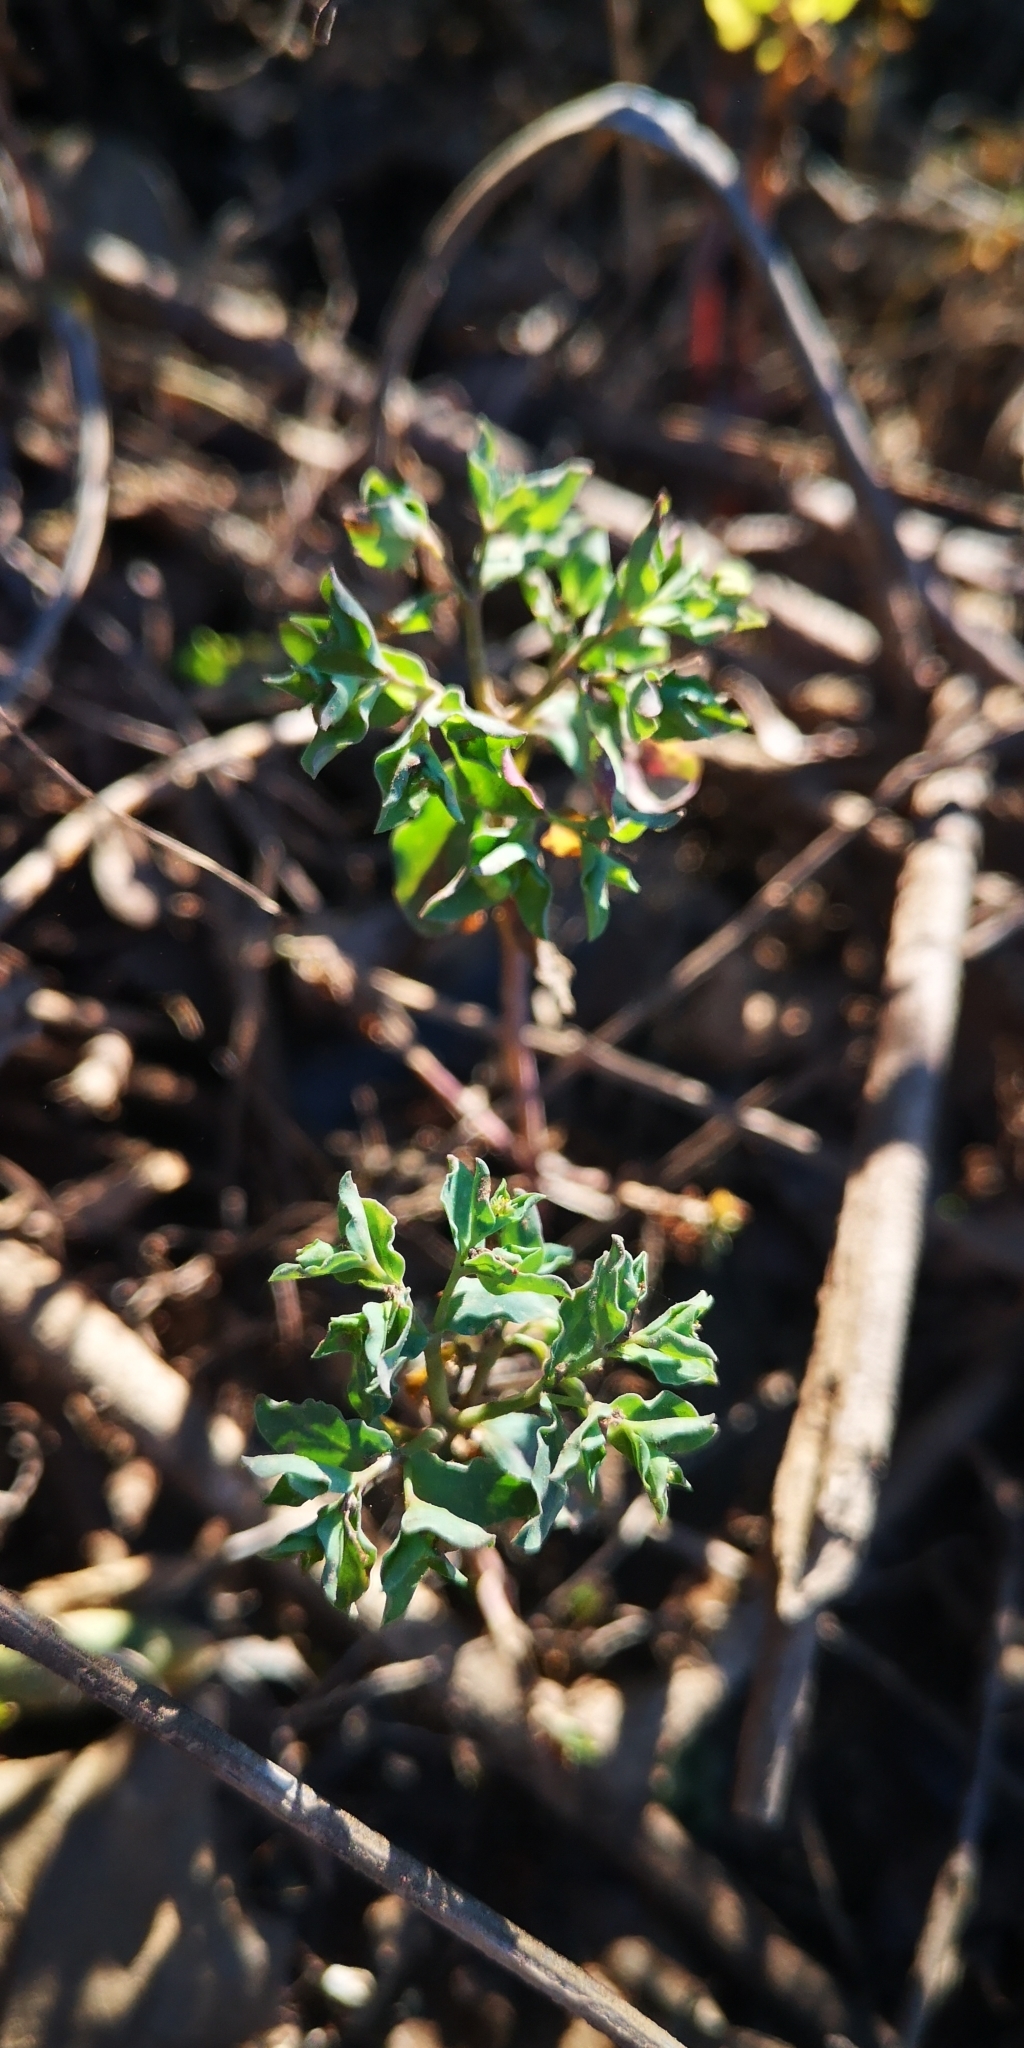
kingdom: Plantae
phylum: Tracheophyta
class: Magnoliopsida
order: Malpighiales
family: Euphorbiaceae
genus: Euphorbia
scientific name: Euphorbia peplus
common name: Petty spurge
